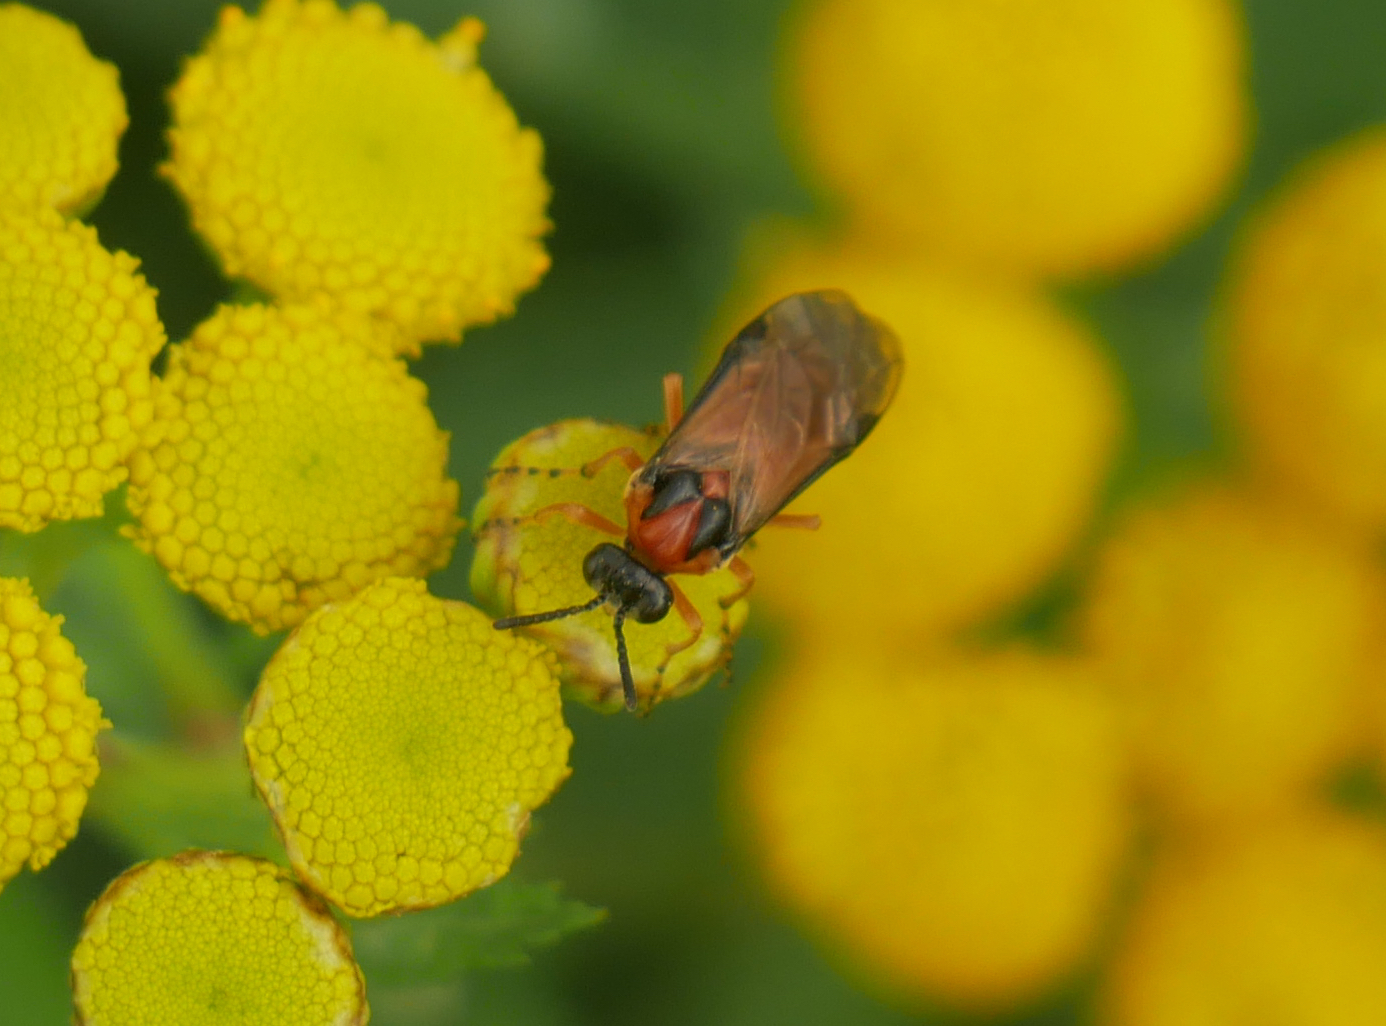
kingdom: Animalia
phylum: Arthropoda
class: Insecta
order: Hymenoptera
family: Tenthredinidae
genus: Athalia
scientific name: Athalia rosae
